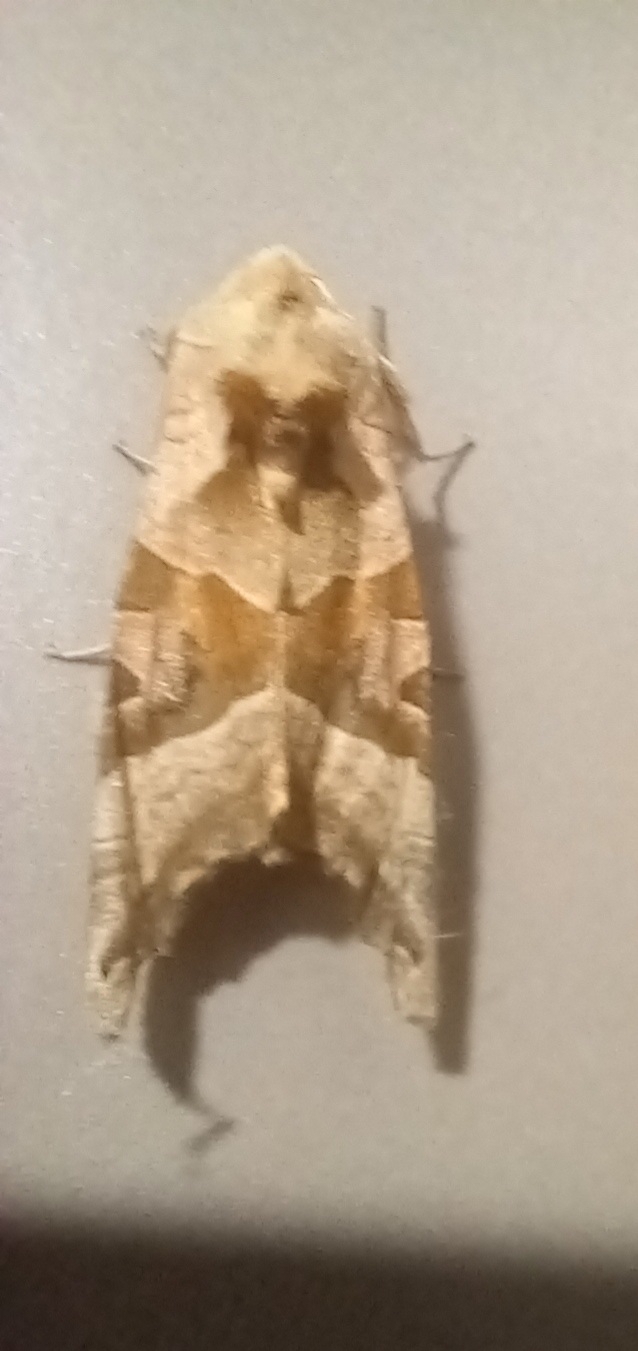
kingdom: Animalia
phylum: Arthropoda
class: Insecta
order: Lepidoptera
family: Noctuidae
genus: Phlogophora
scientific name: Phlogophora meticulosa
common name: Angle shades
